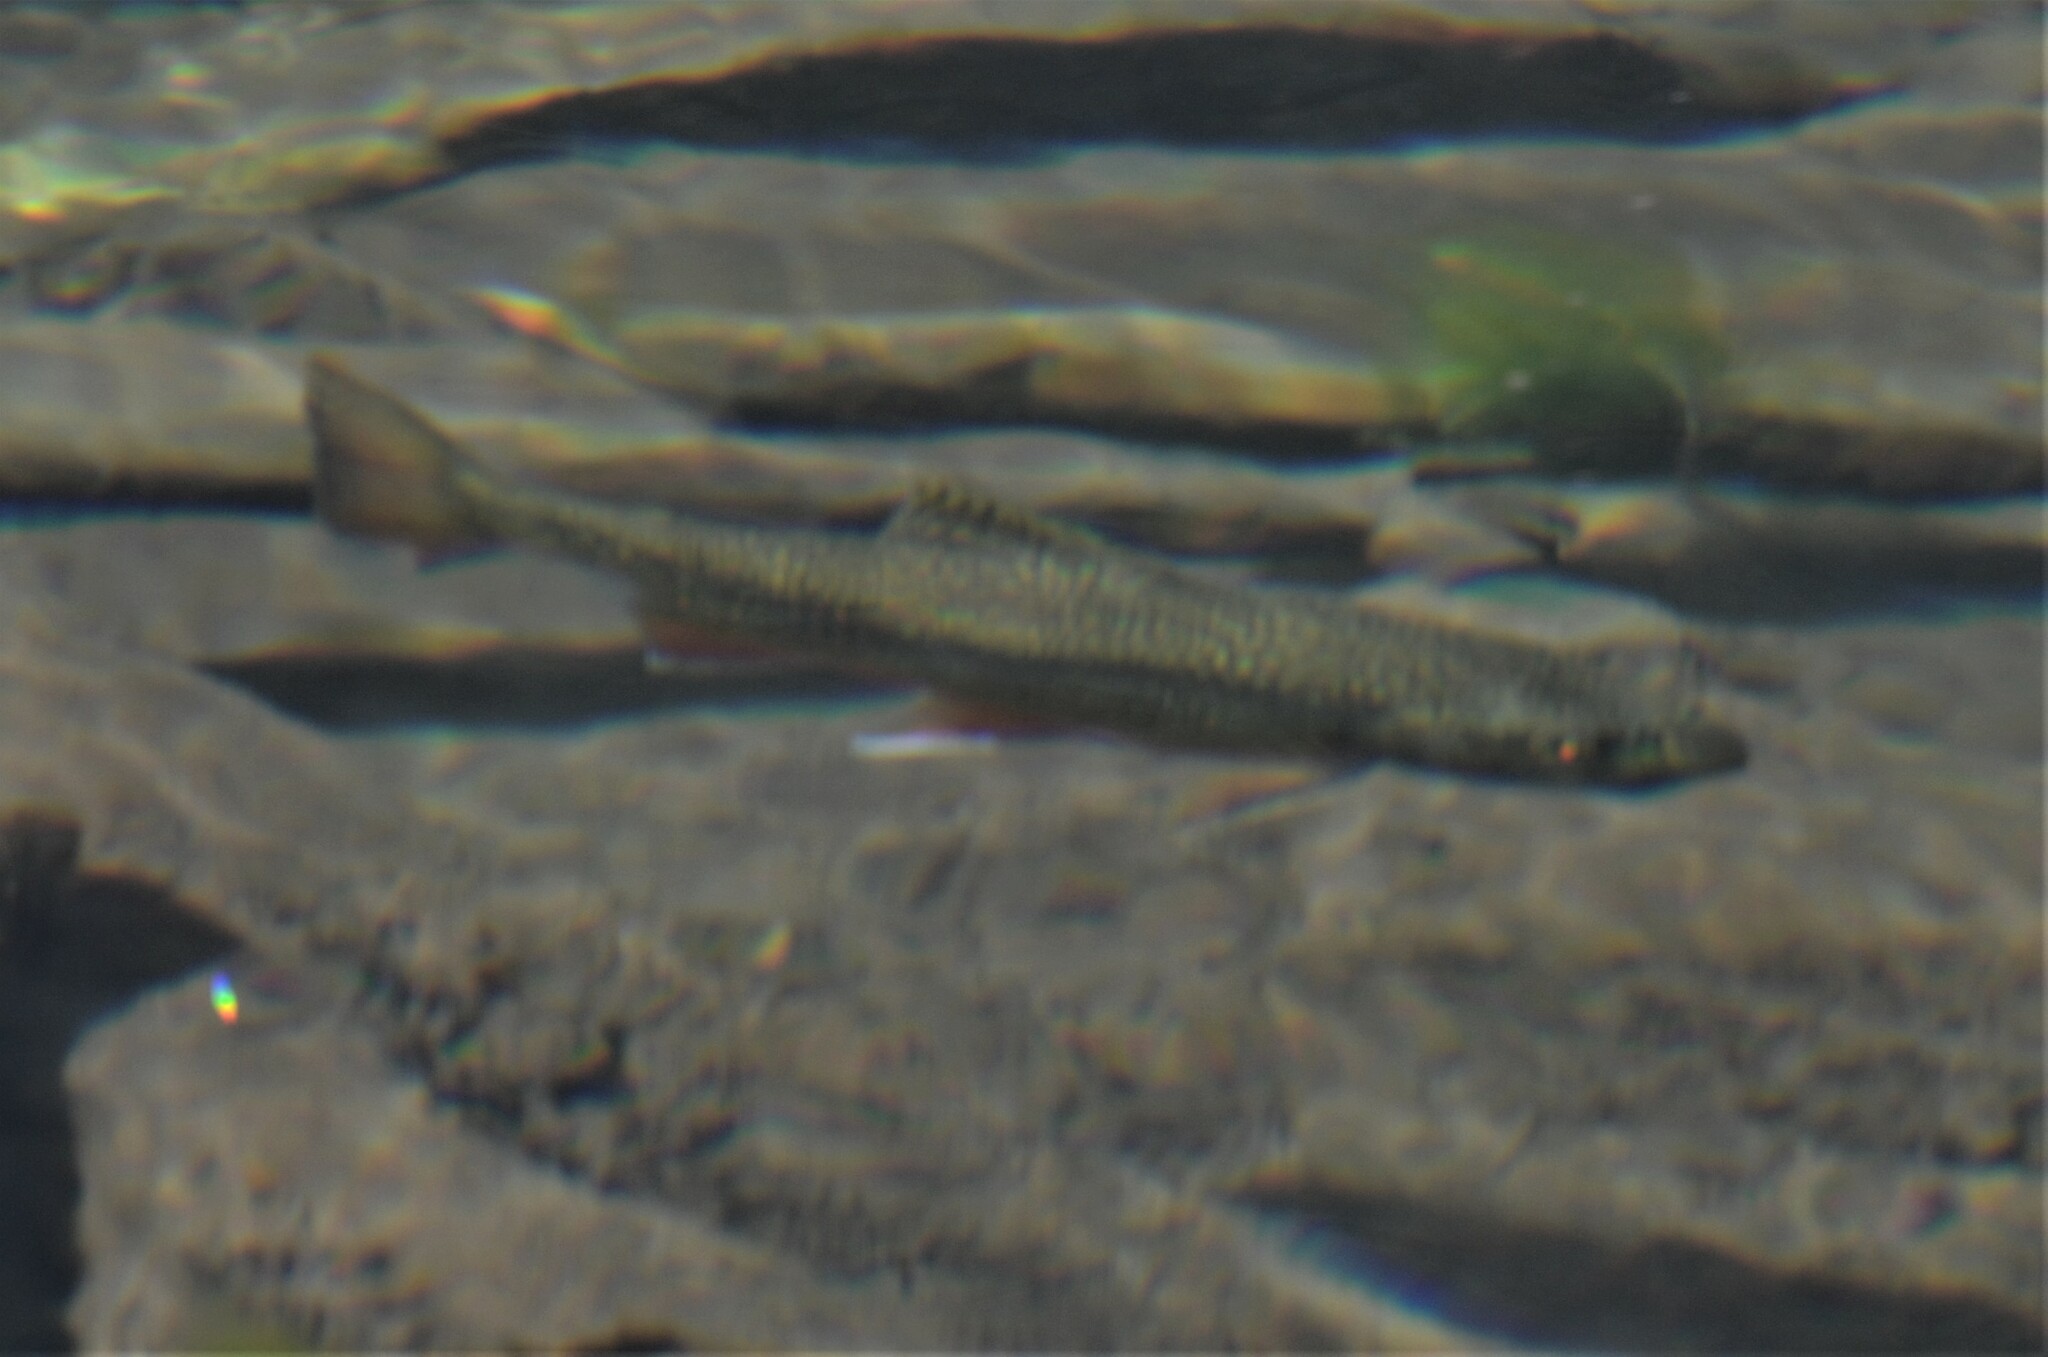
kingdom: Animalia
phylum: Chordata
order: Salmoniformes
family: Salmonidae
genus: Salvelinus
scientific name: Salvelinus fontinalis
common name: Brook trout
